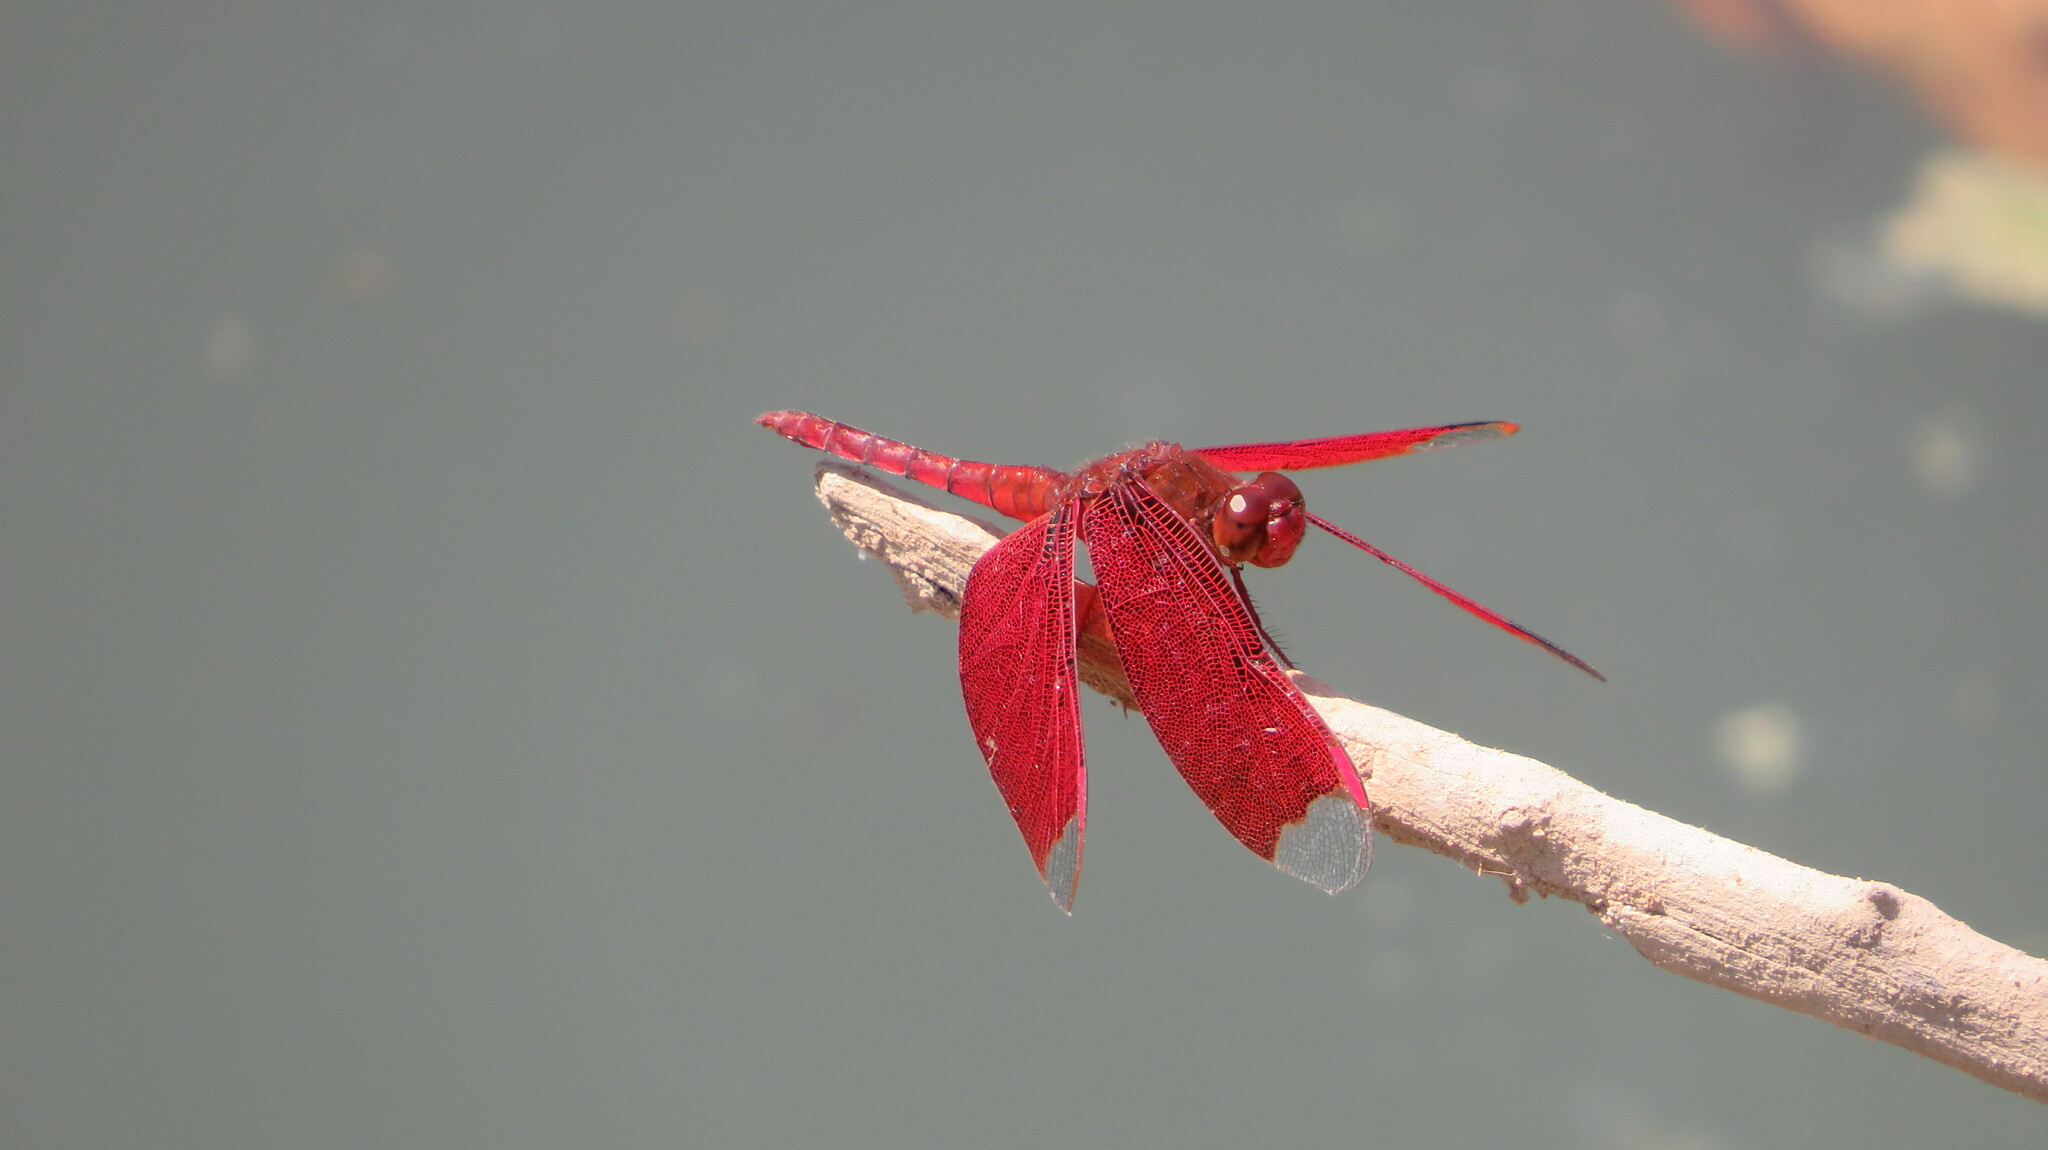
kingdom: Animalia
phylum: Arthropoda
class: Insecta
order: Odonata
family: Libellulidae
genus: Neurothemis
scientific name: Neurothemis fulvia
